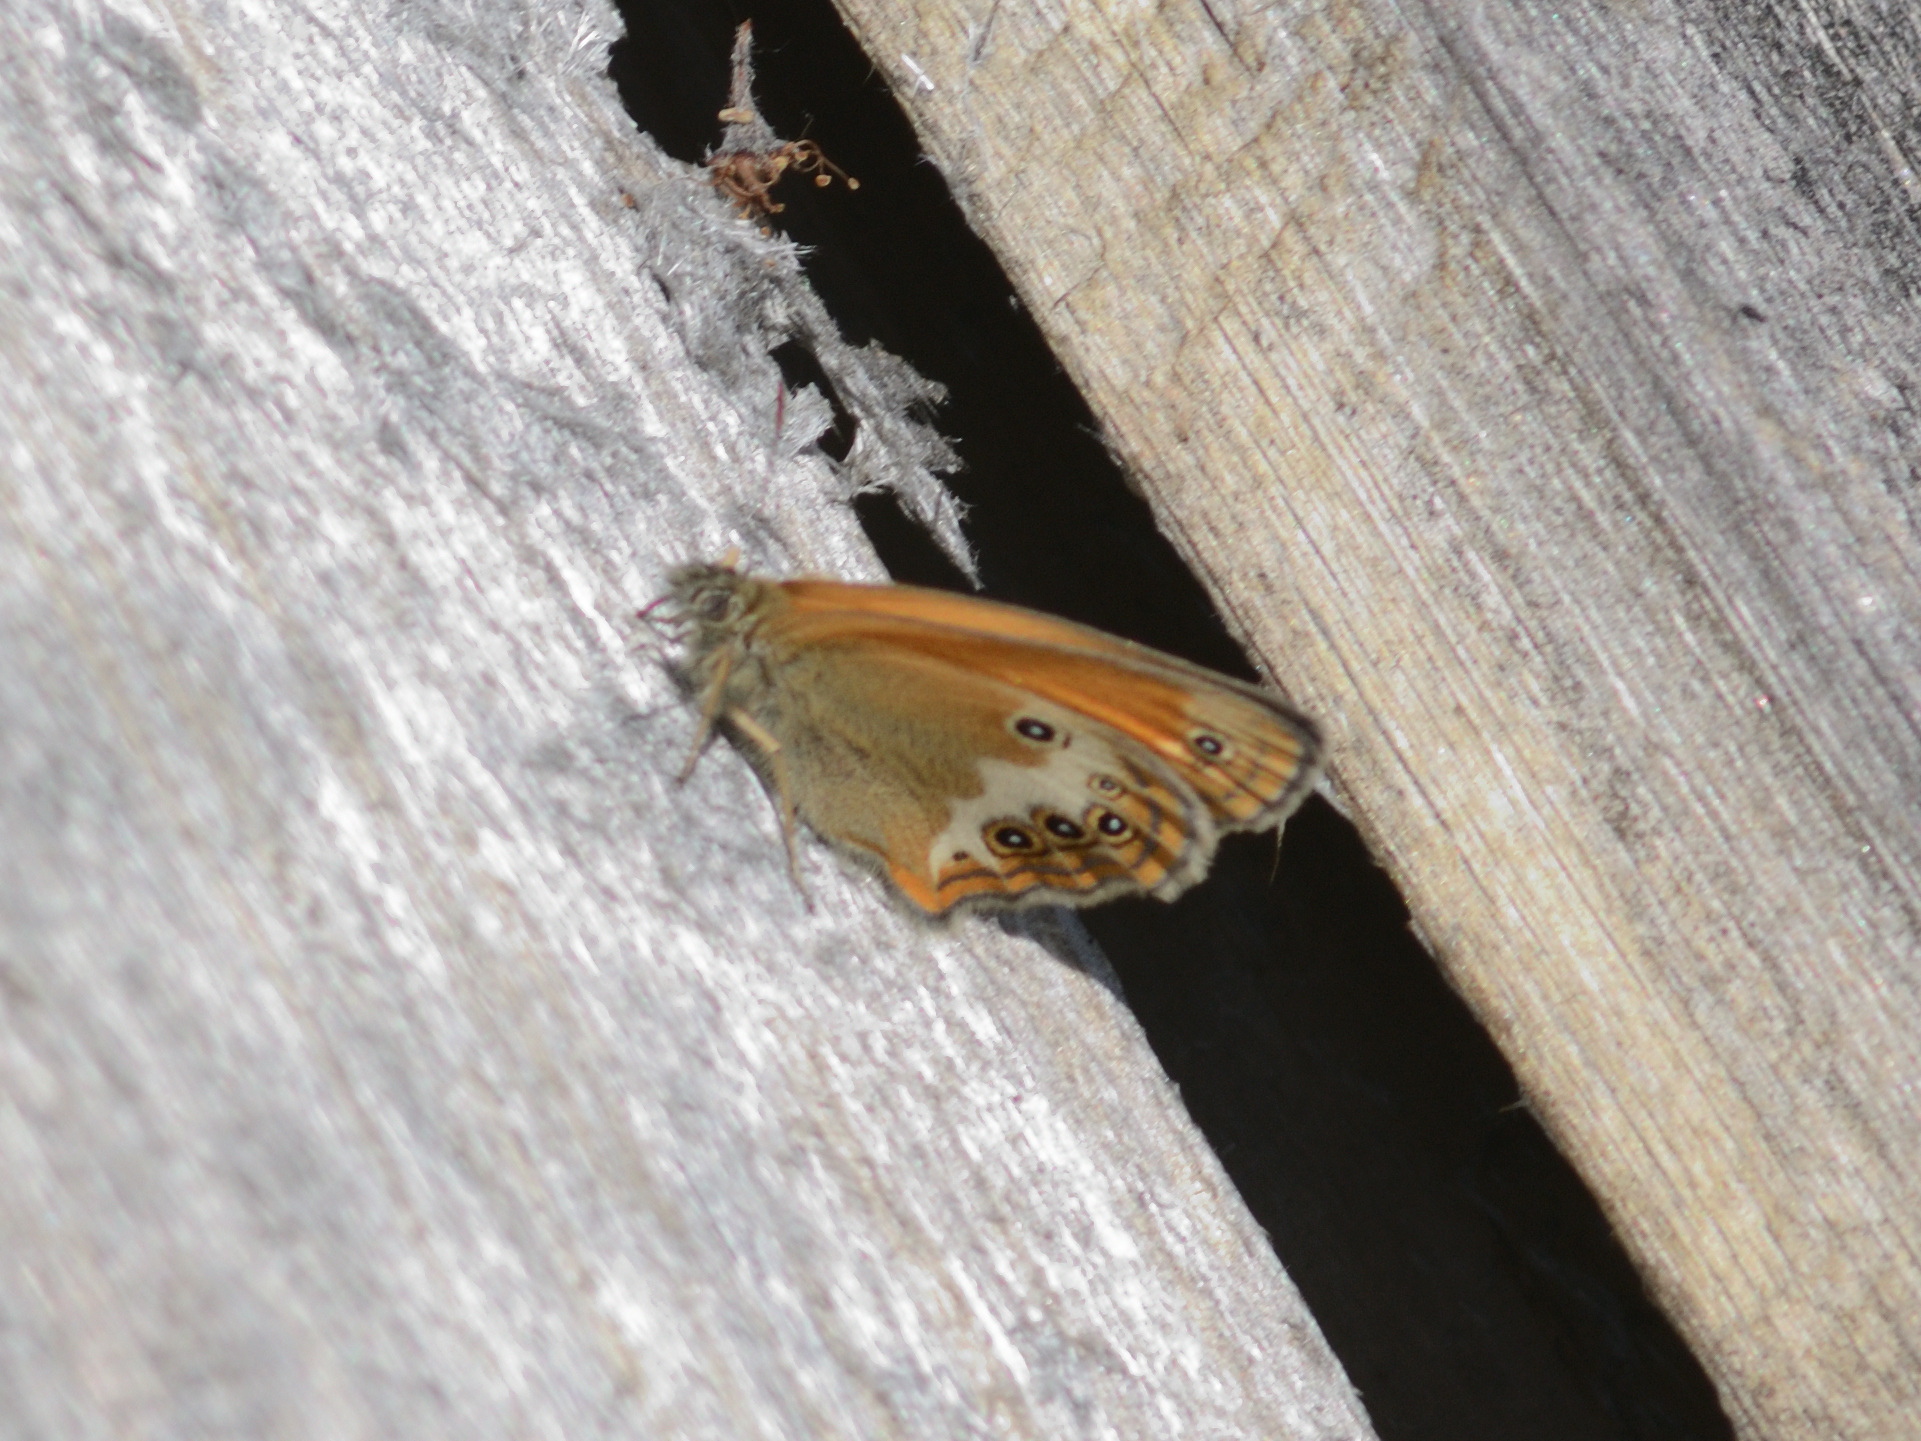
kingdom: Animalia
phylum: Arthropoda
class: Insecta
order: Lepidoptera
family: Nymphalidae
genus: Coenonympha
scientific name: Coenonympha arcania
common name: Pearly heath
